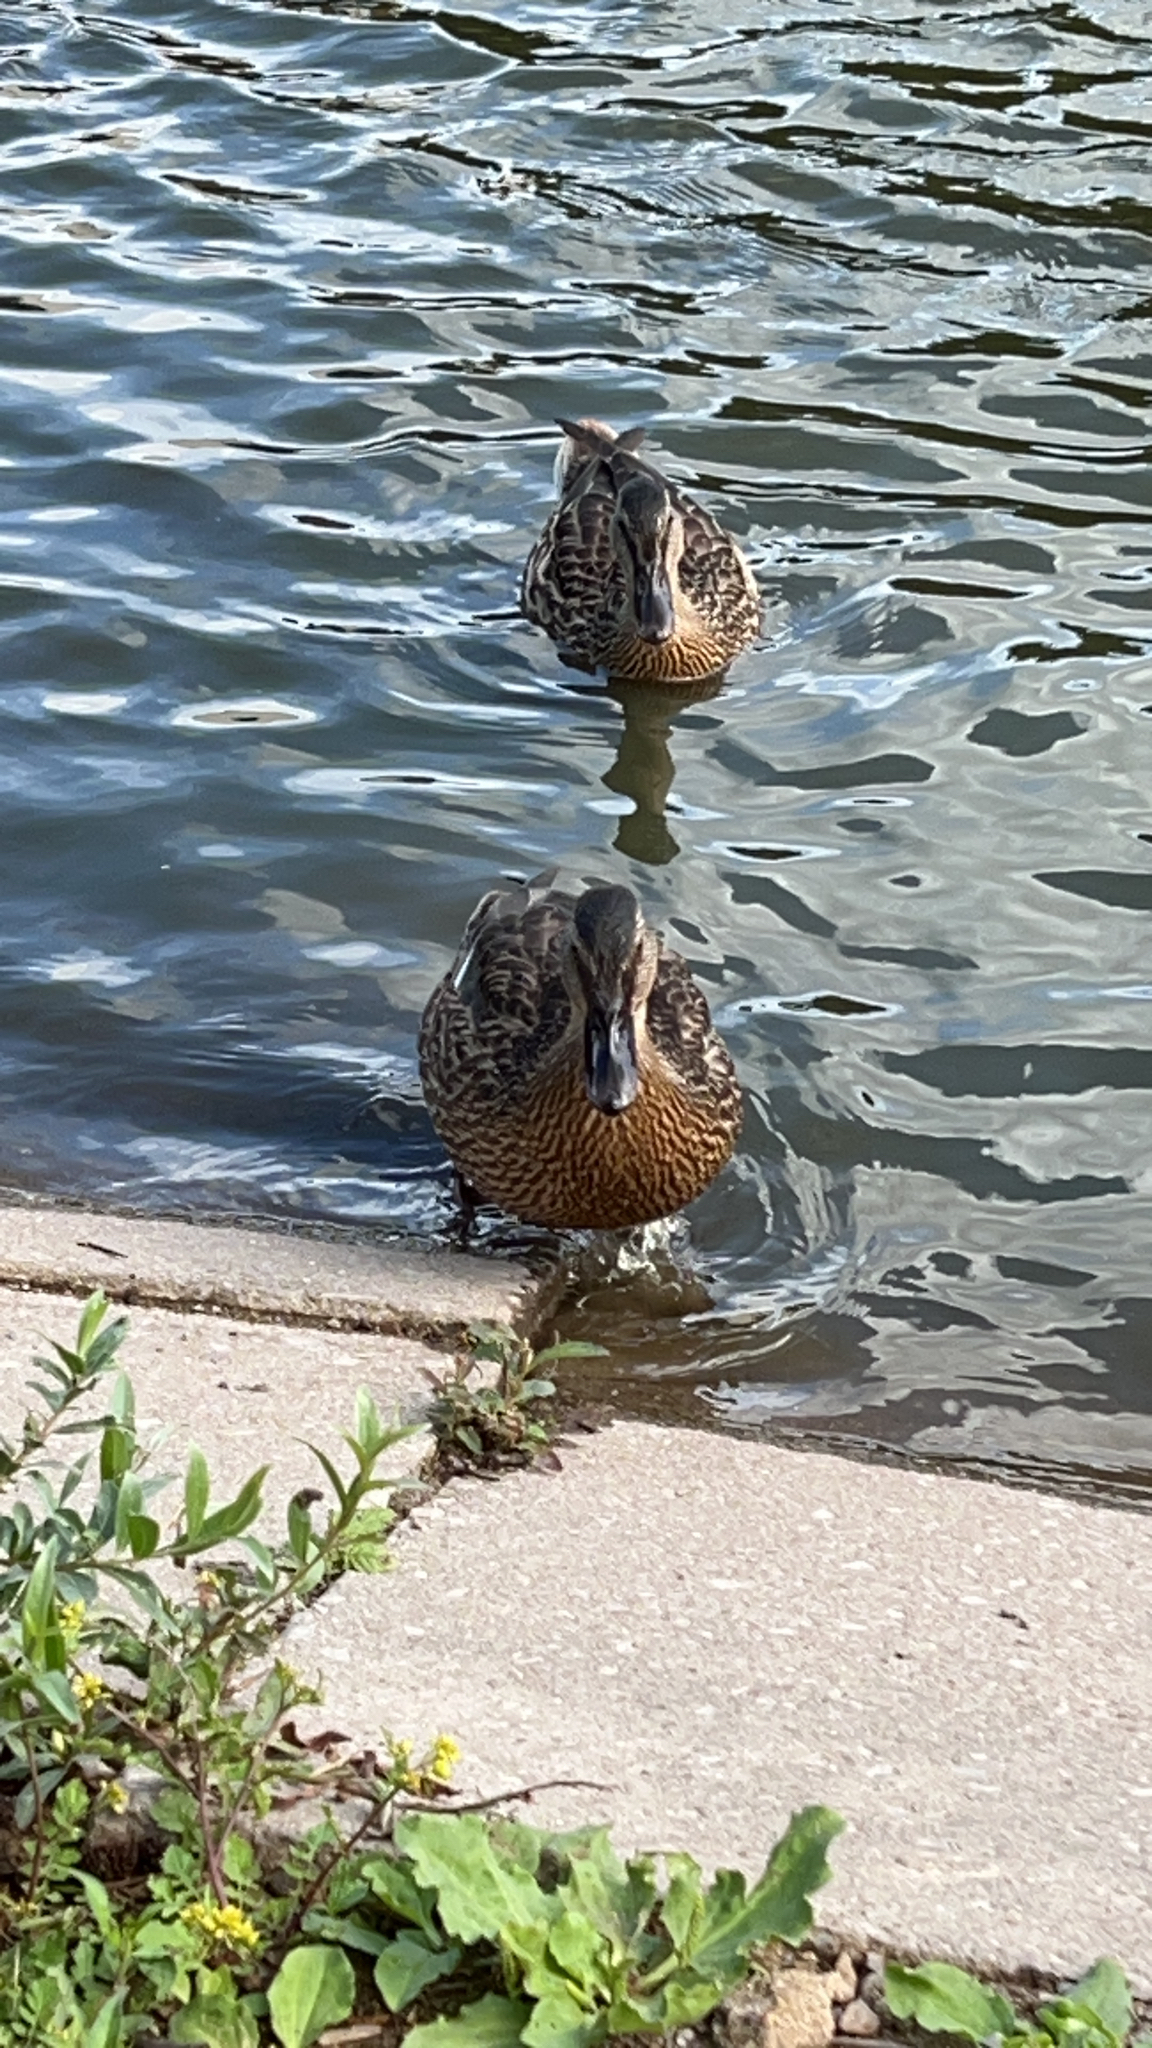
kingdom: Animalia
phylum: Chordata
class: Aves
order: Anseriformes
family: Anatidae
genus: Anas
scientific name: Anas platyrhynchos
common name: Mallard
